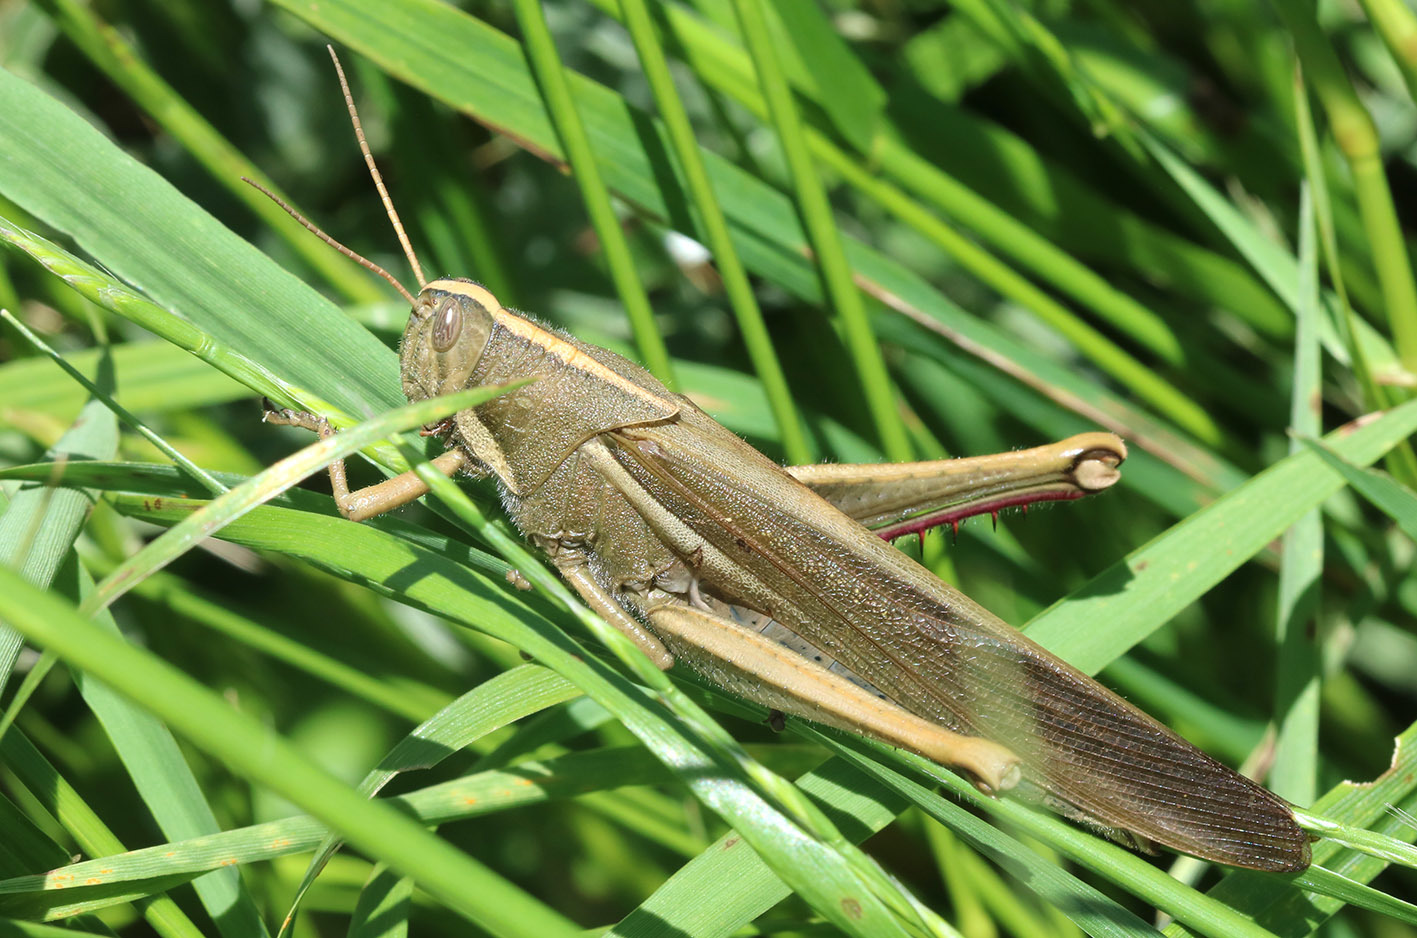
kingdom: Animalia
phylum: Arthropoda
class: Insecta
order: Orthoptera
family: Acrididae
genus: Schistocerca
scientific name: Schistocerca flavofasciata
